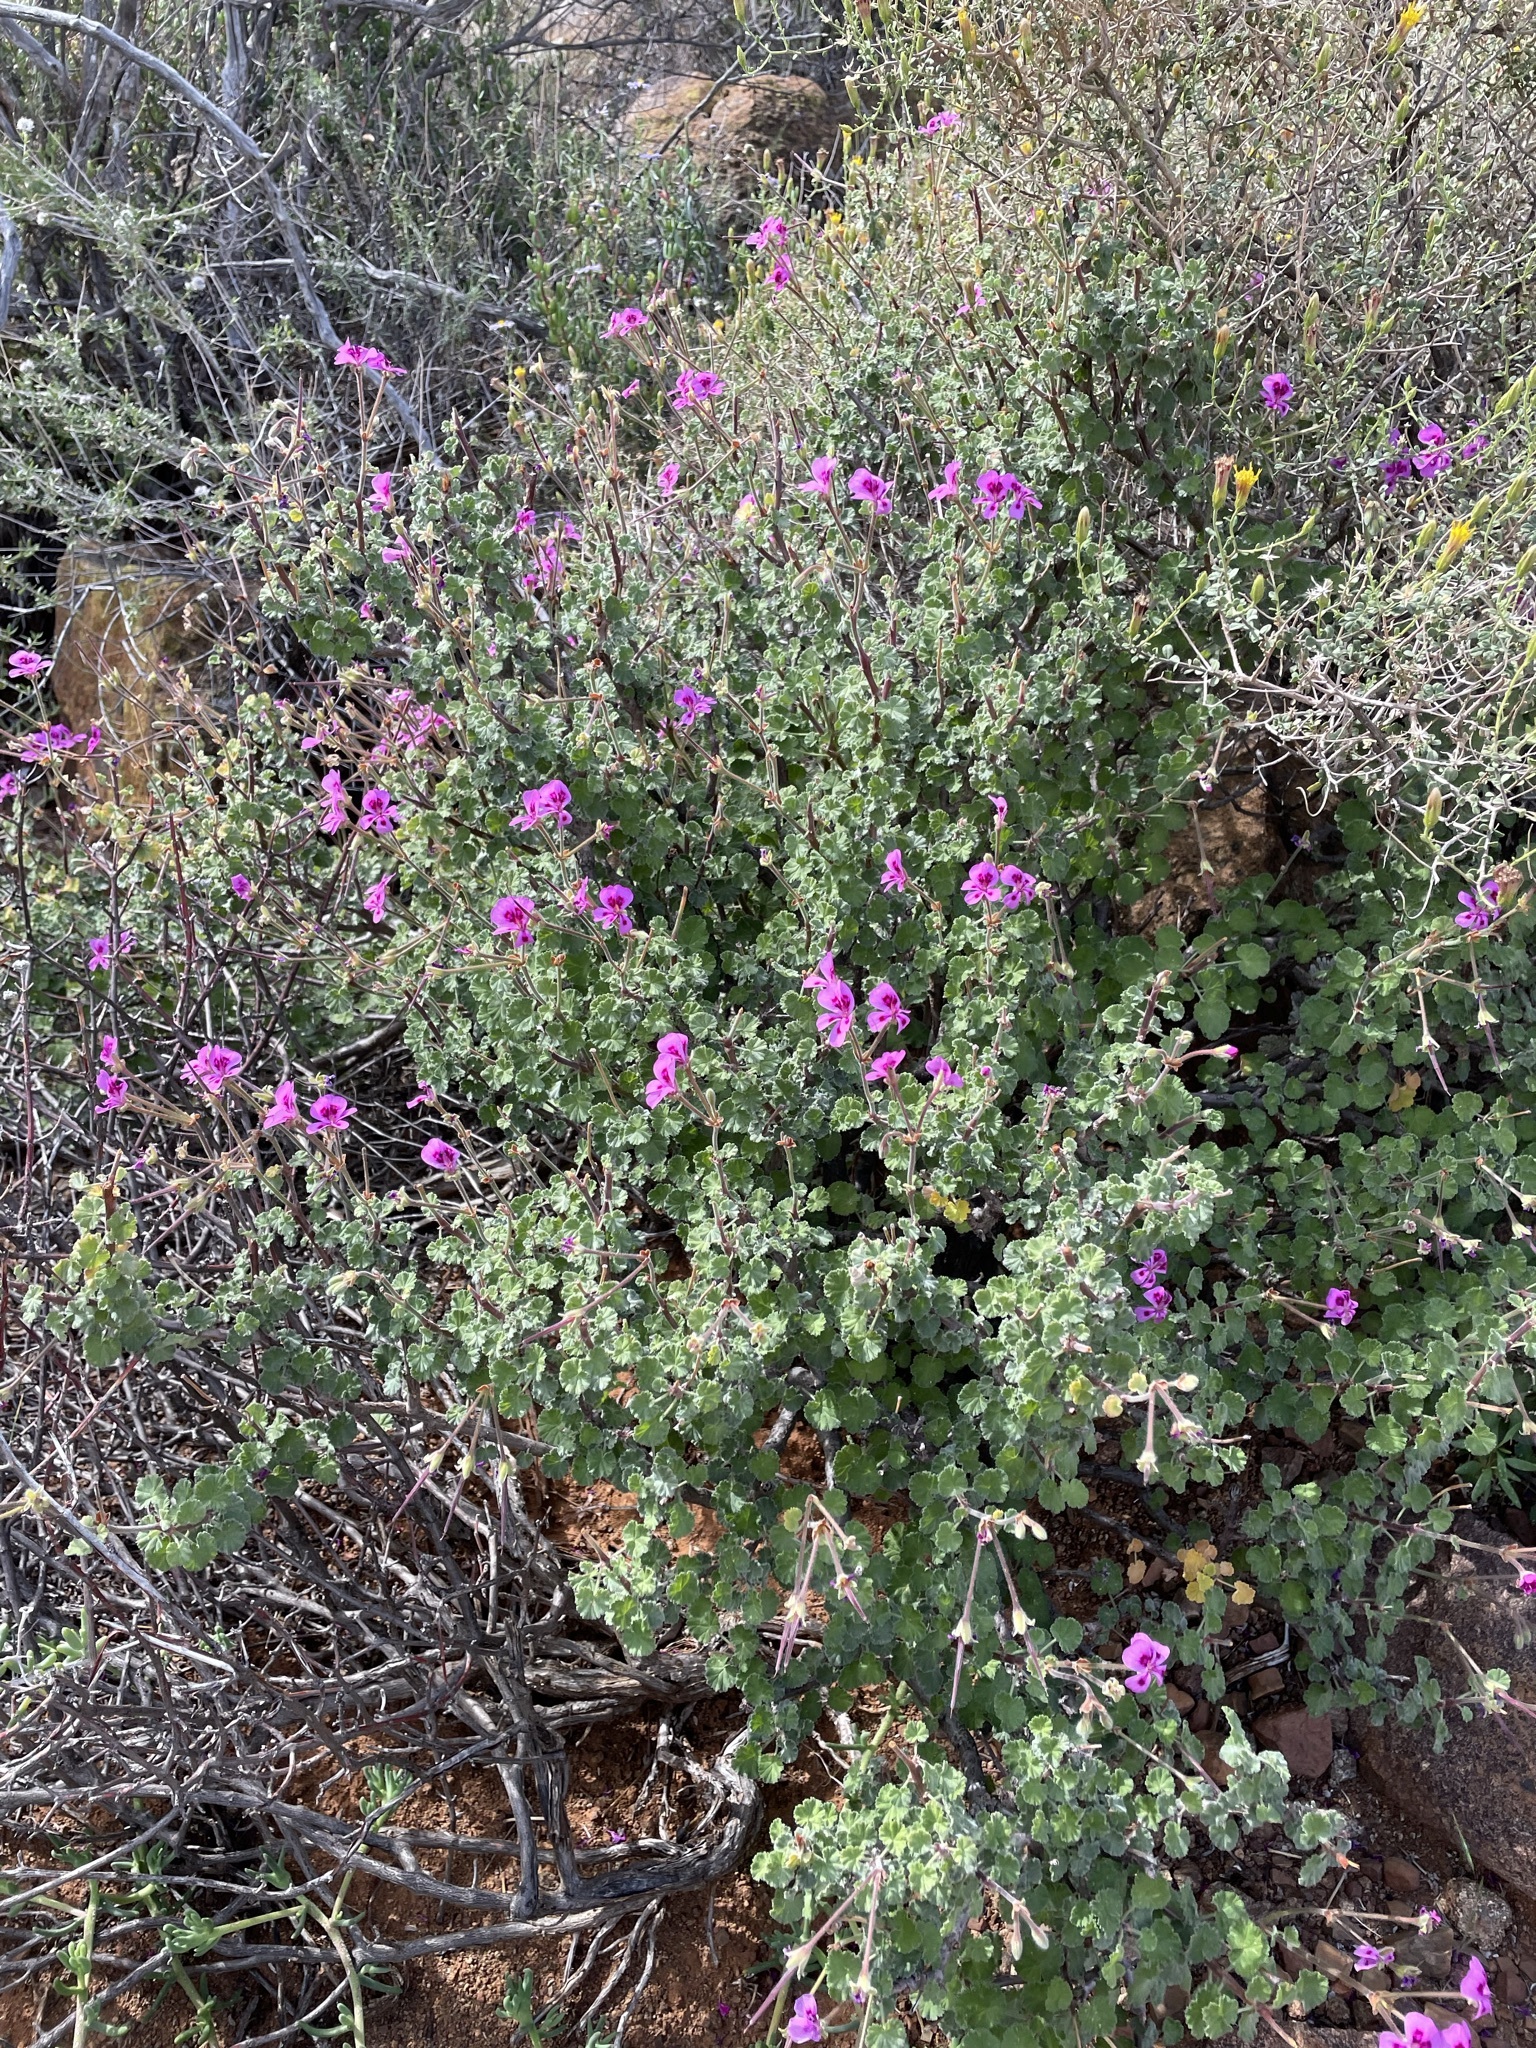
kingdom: Plantae
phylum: Tracheophyta
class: Magnoliopsida
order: Geraniales
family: Geraniaceae
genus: Pelargonium
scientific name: Pelargonium magenteum
